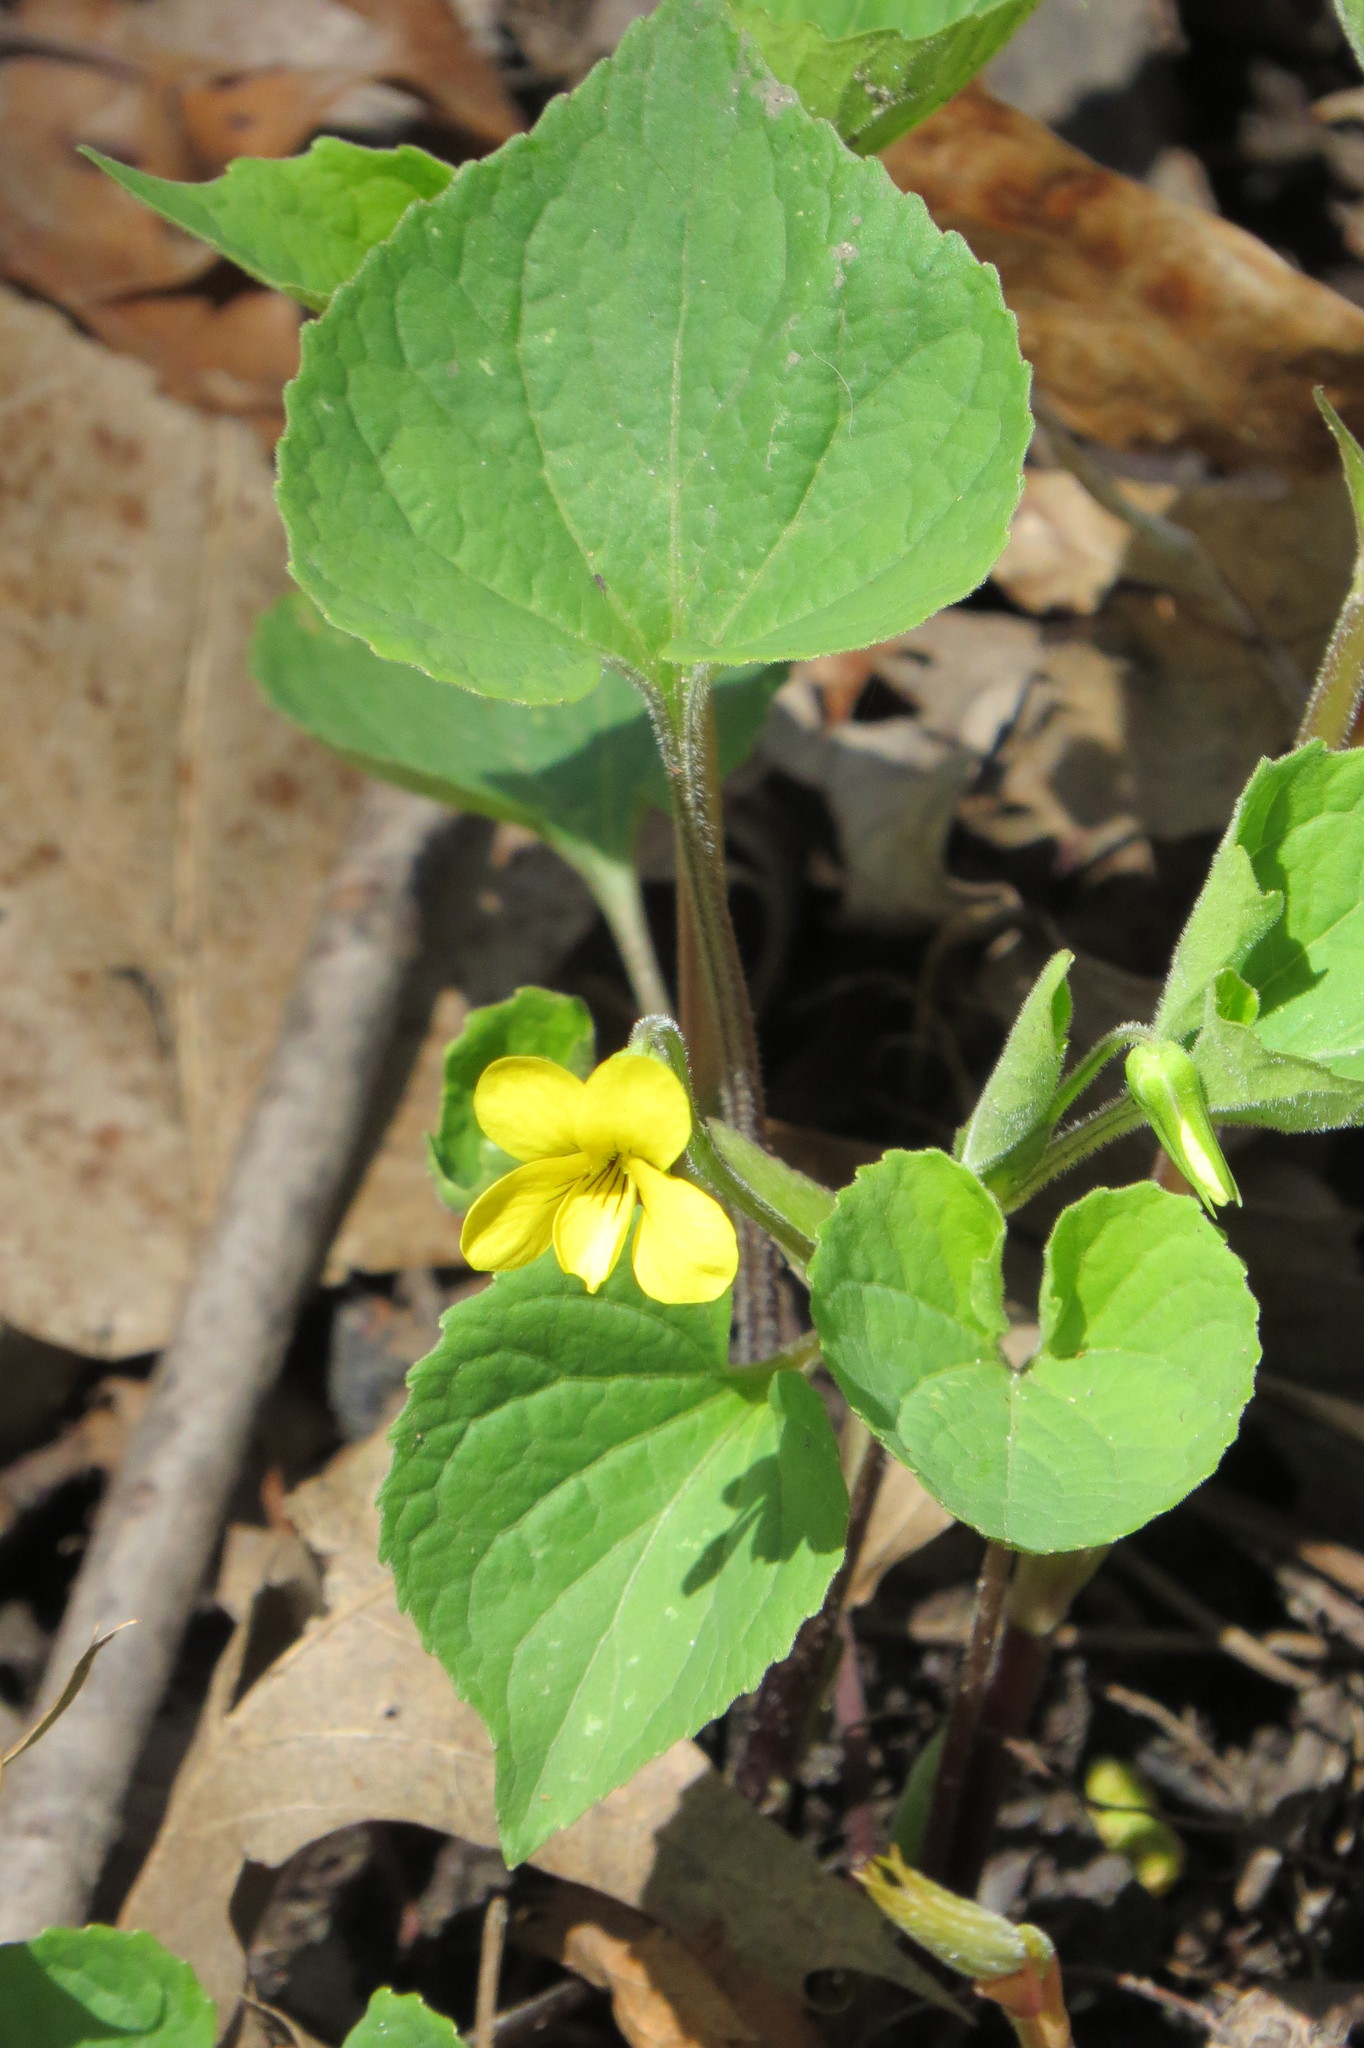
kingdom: Plantae
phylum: Tracheophyta
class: Magnoliopsida
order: Malpighiales
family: Violaceae
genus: Viola
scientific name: Viola eriocarpa
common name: Smooth yellow violet
